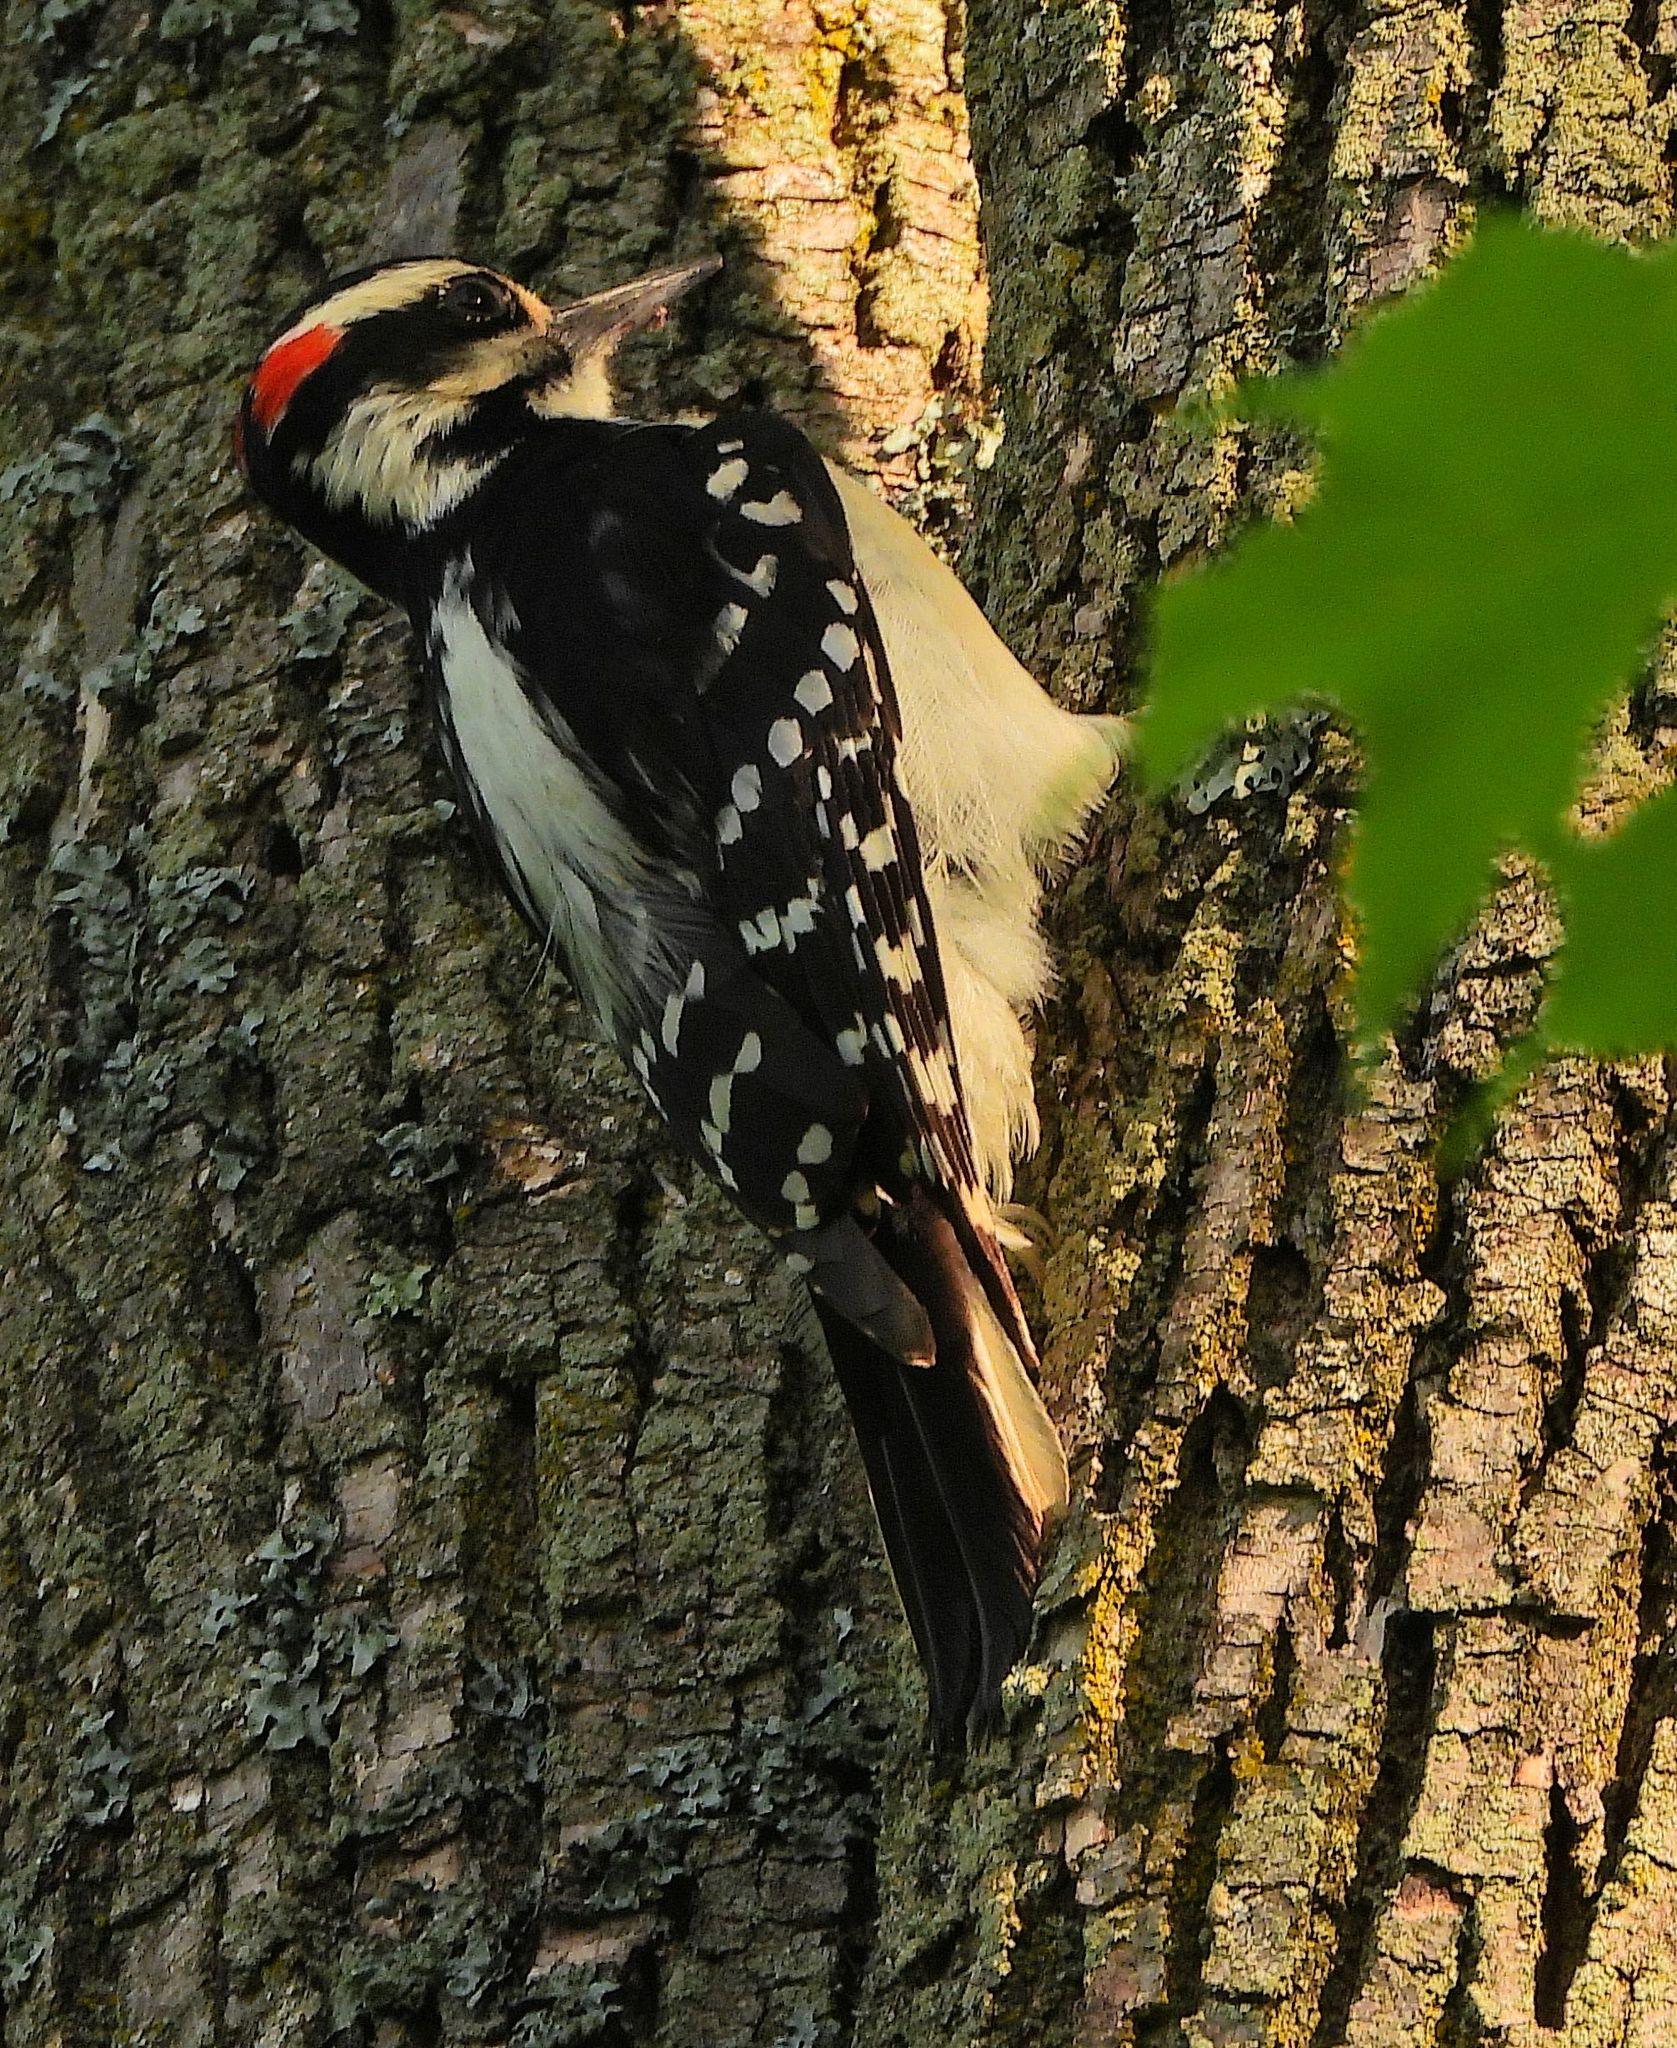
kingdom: Animalia
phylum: Chordata
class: Aves
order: Piciformes
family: Picidae
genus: Leuconotopicus
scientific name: Leuconotopicus villosus
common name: Hairy woodpecker
